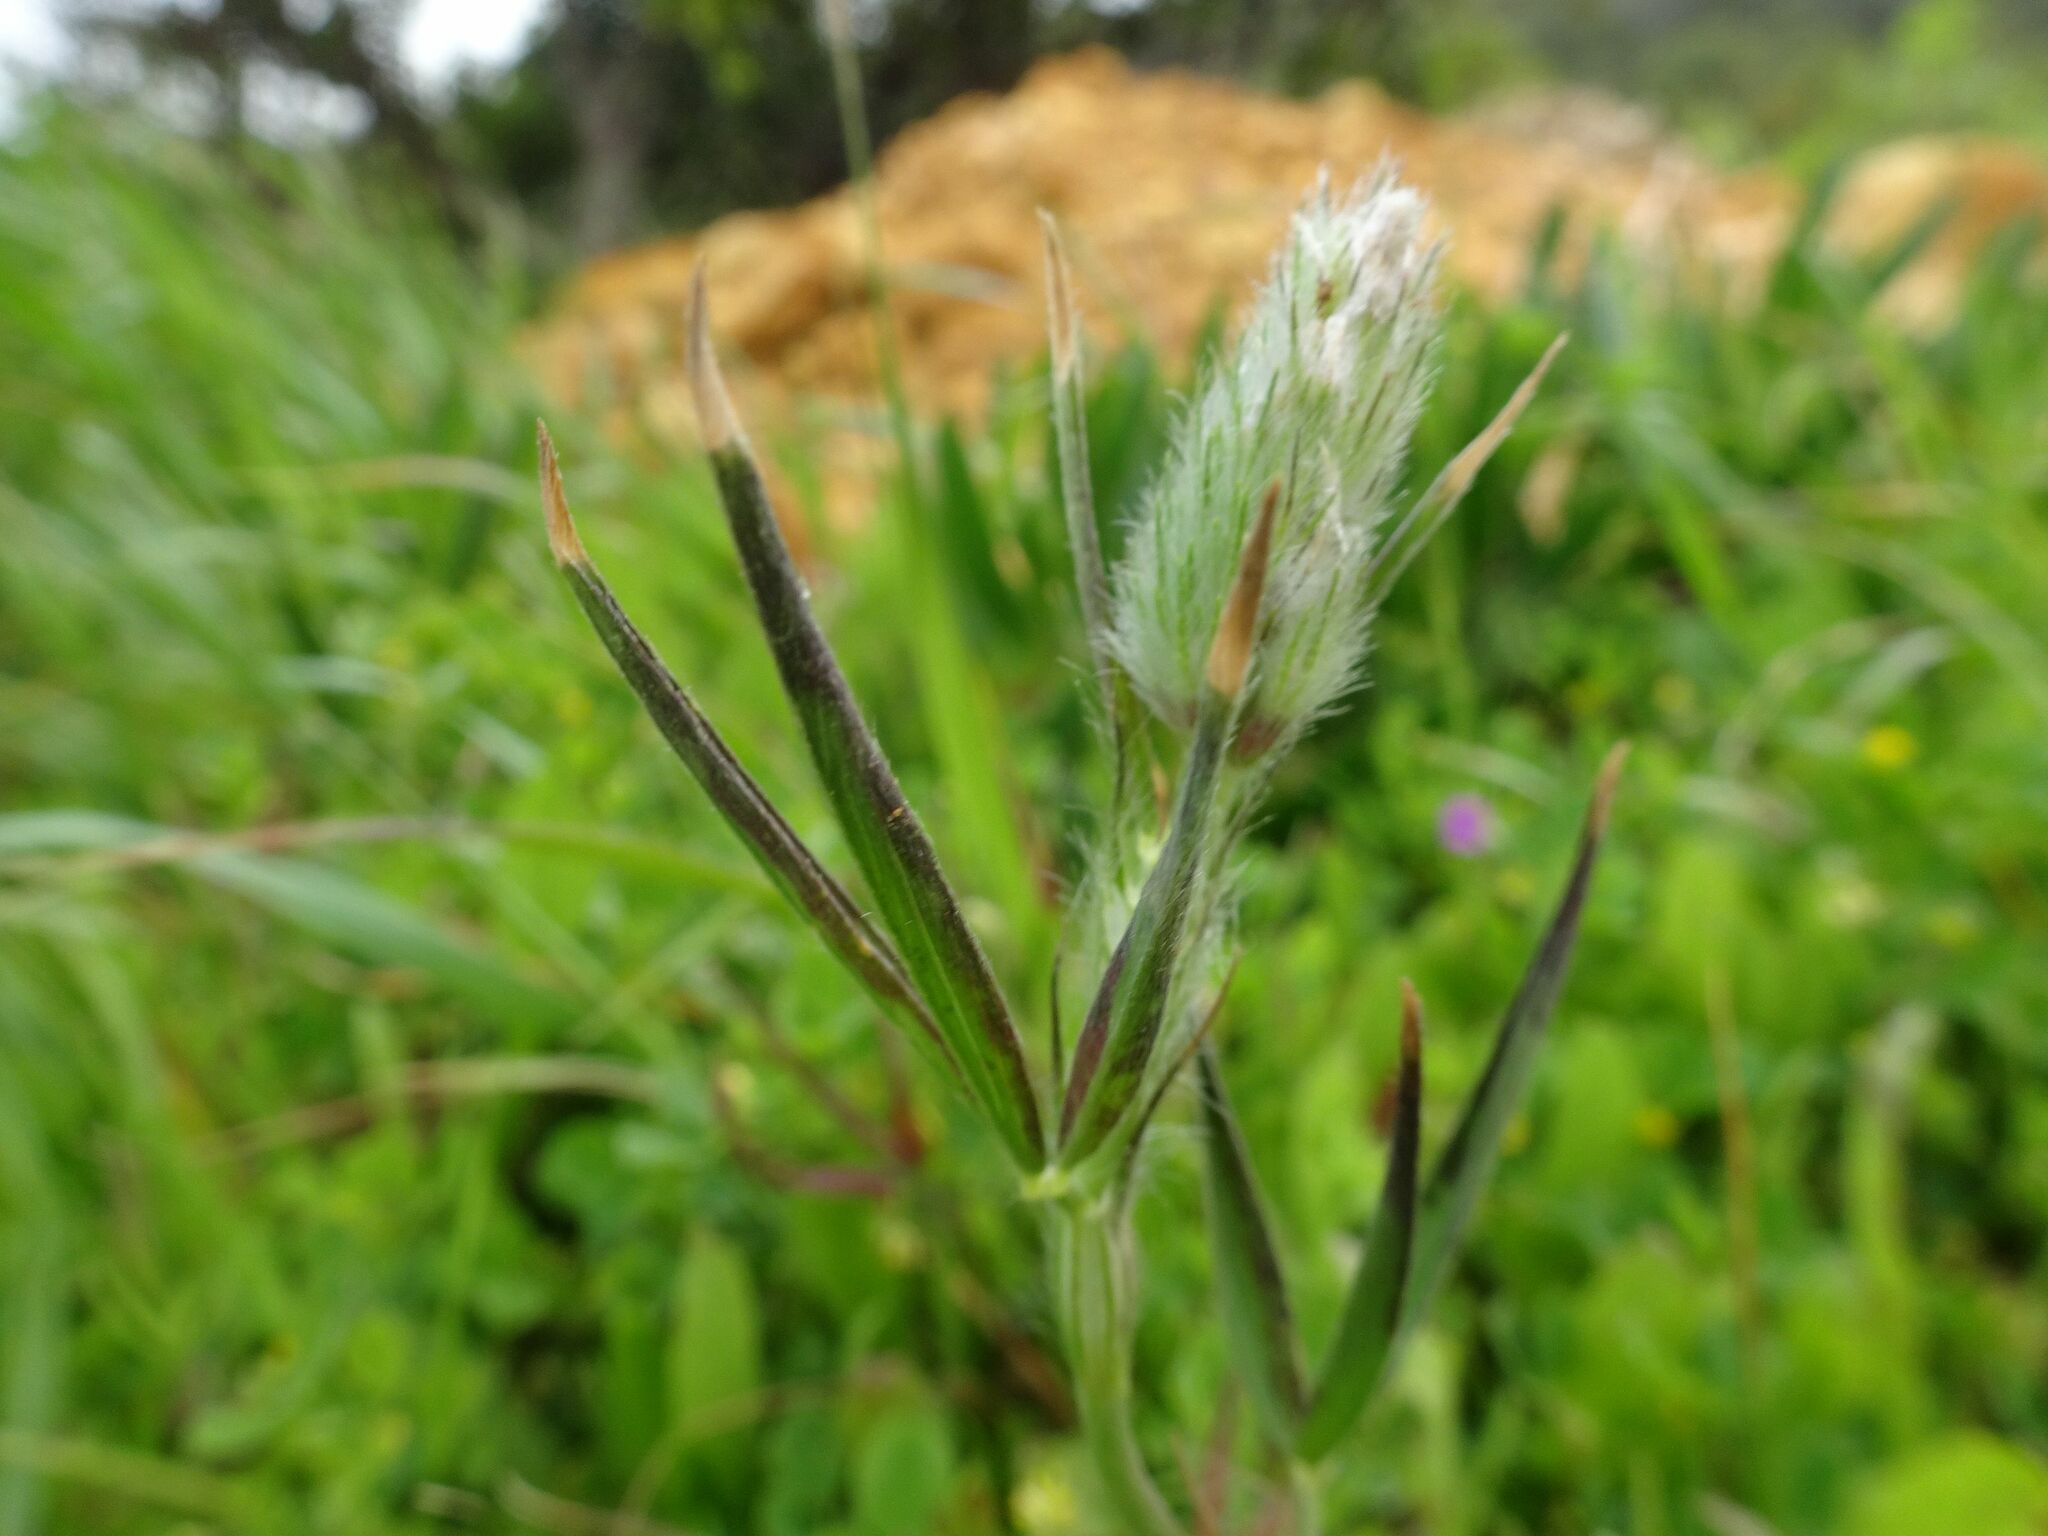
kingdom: Plantae
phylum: Tracheophyta
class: Magnoliopsida
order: Fabales
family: Fabaceae
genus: Trifolium
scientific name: Trifolium angustifolium
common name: Narrow clover
